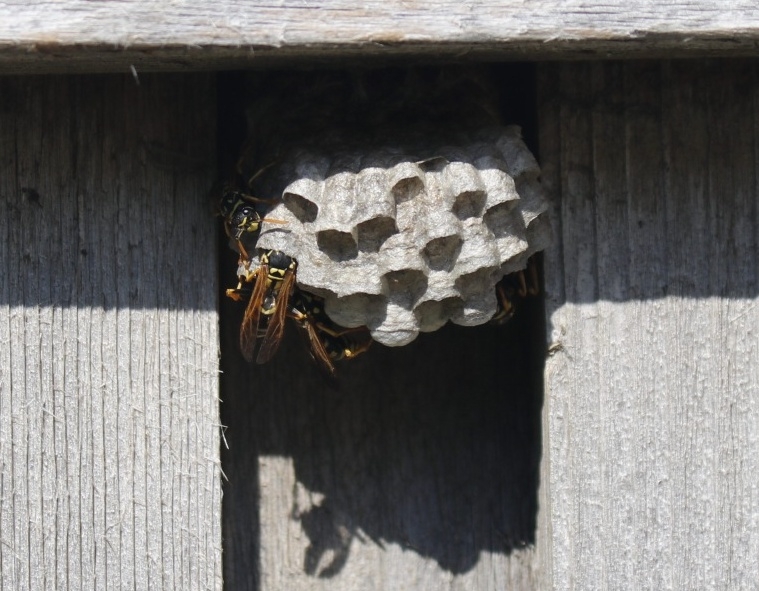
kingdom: Animalia
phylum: Arthropoda
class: Insecta
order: Hymenoptera
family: Eumenidae
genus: Polistes
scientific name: Polistes dominula
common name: Paper wasp
